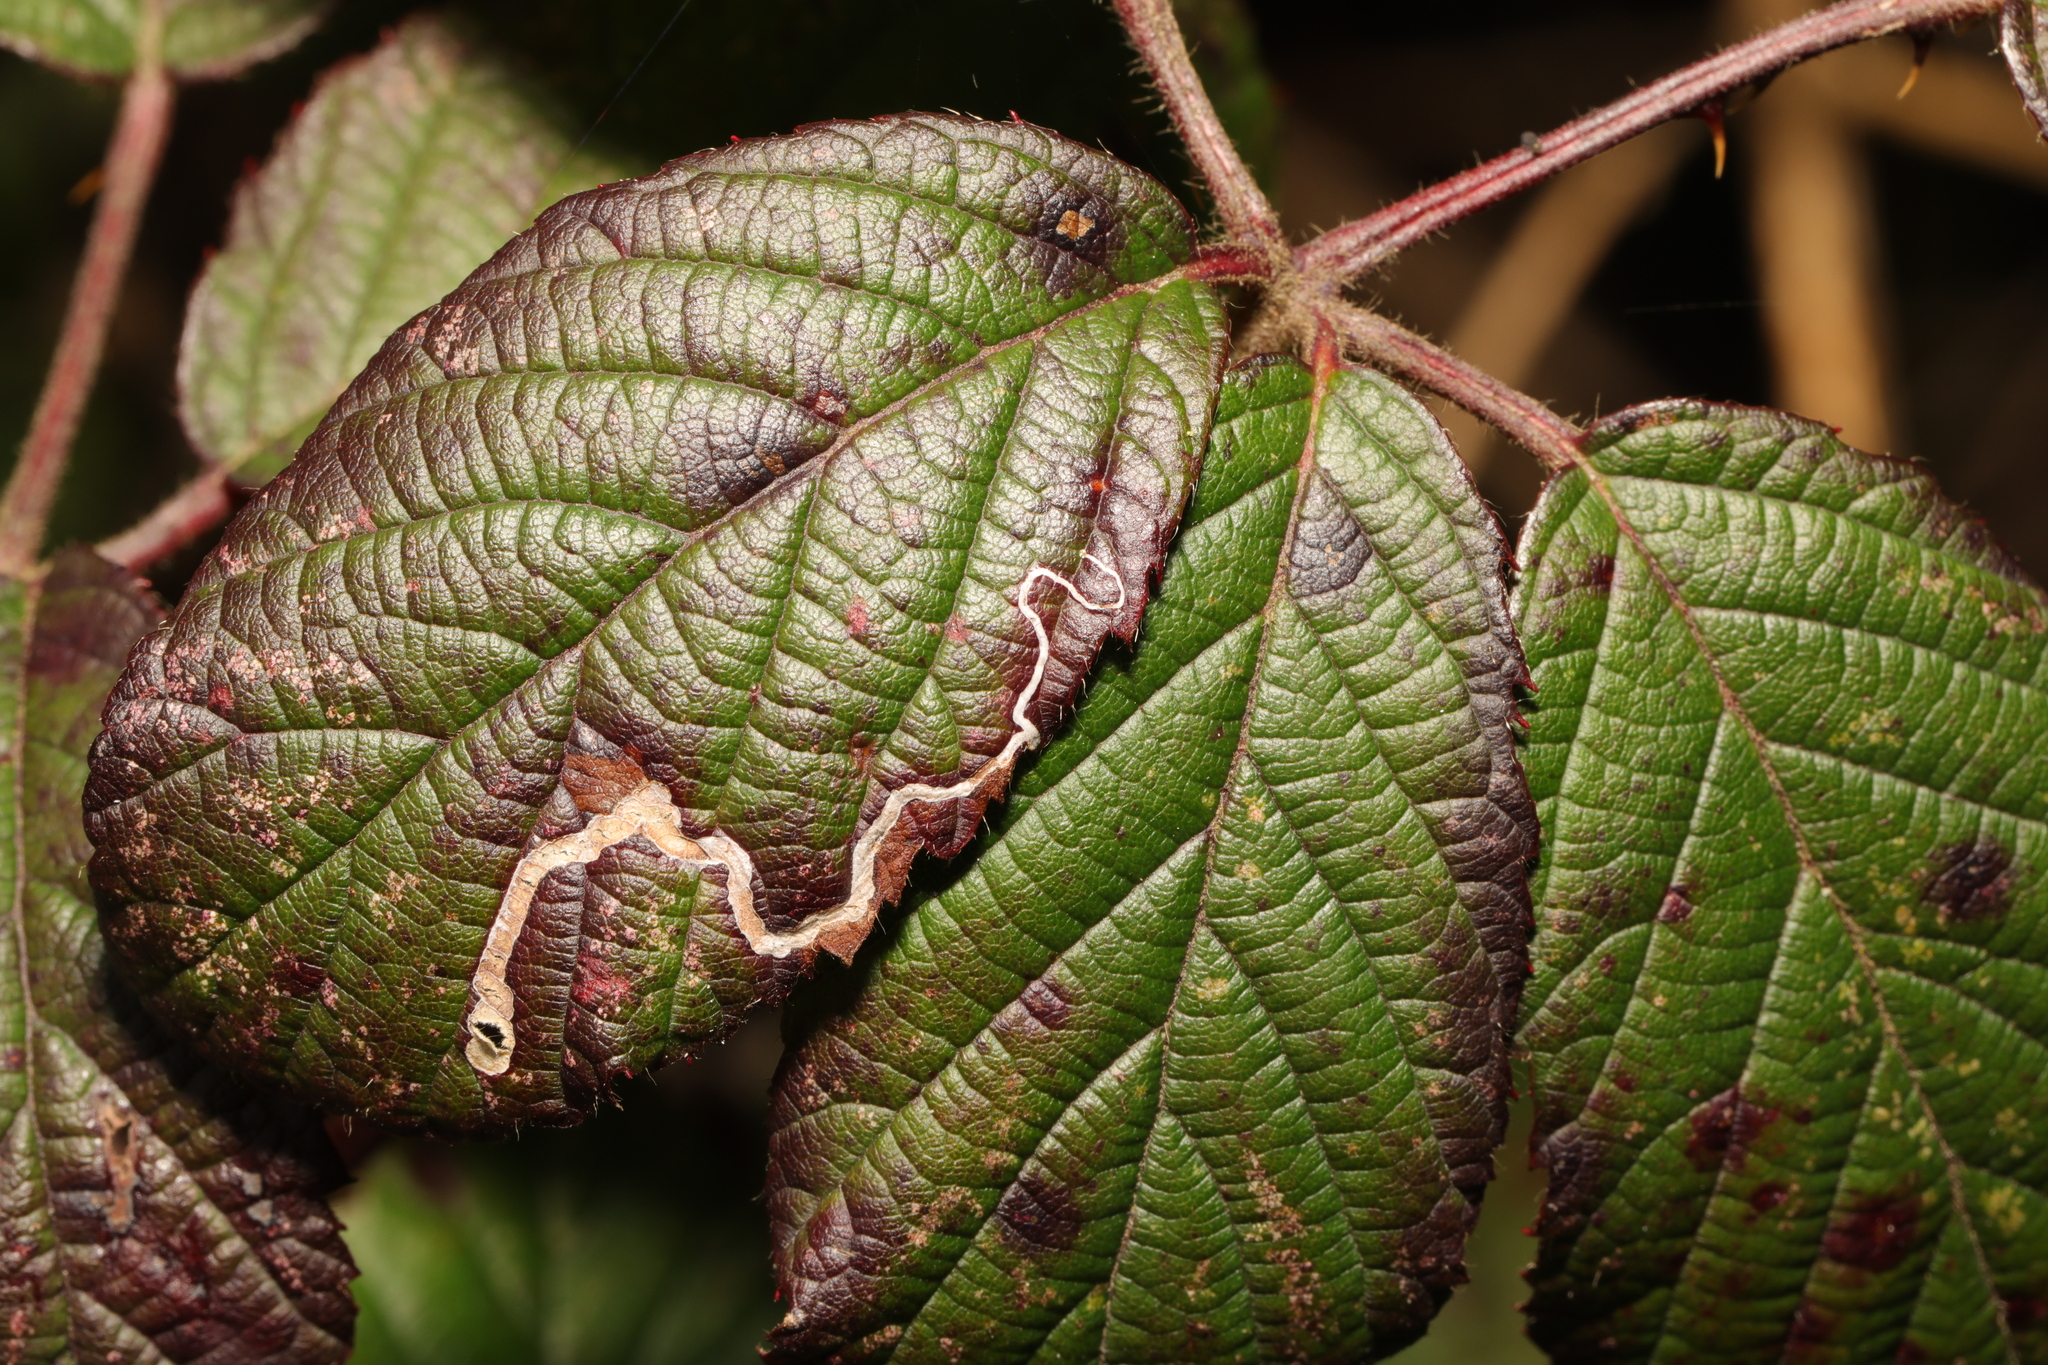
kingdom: Animalia
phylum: Arthropoda
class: Insecta
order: Lepidoptera
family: Nepticulidae
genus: Stigmella
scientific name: Stigmella aurella
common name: Golden pigmy
